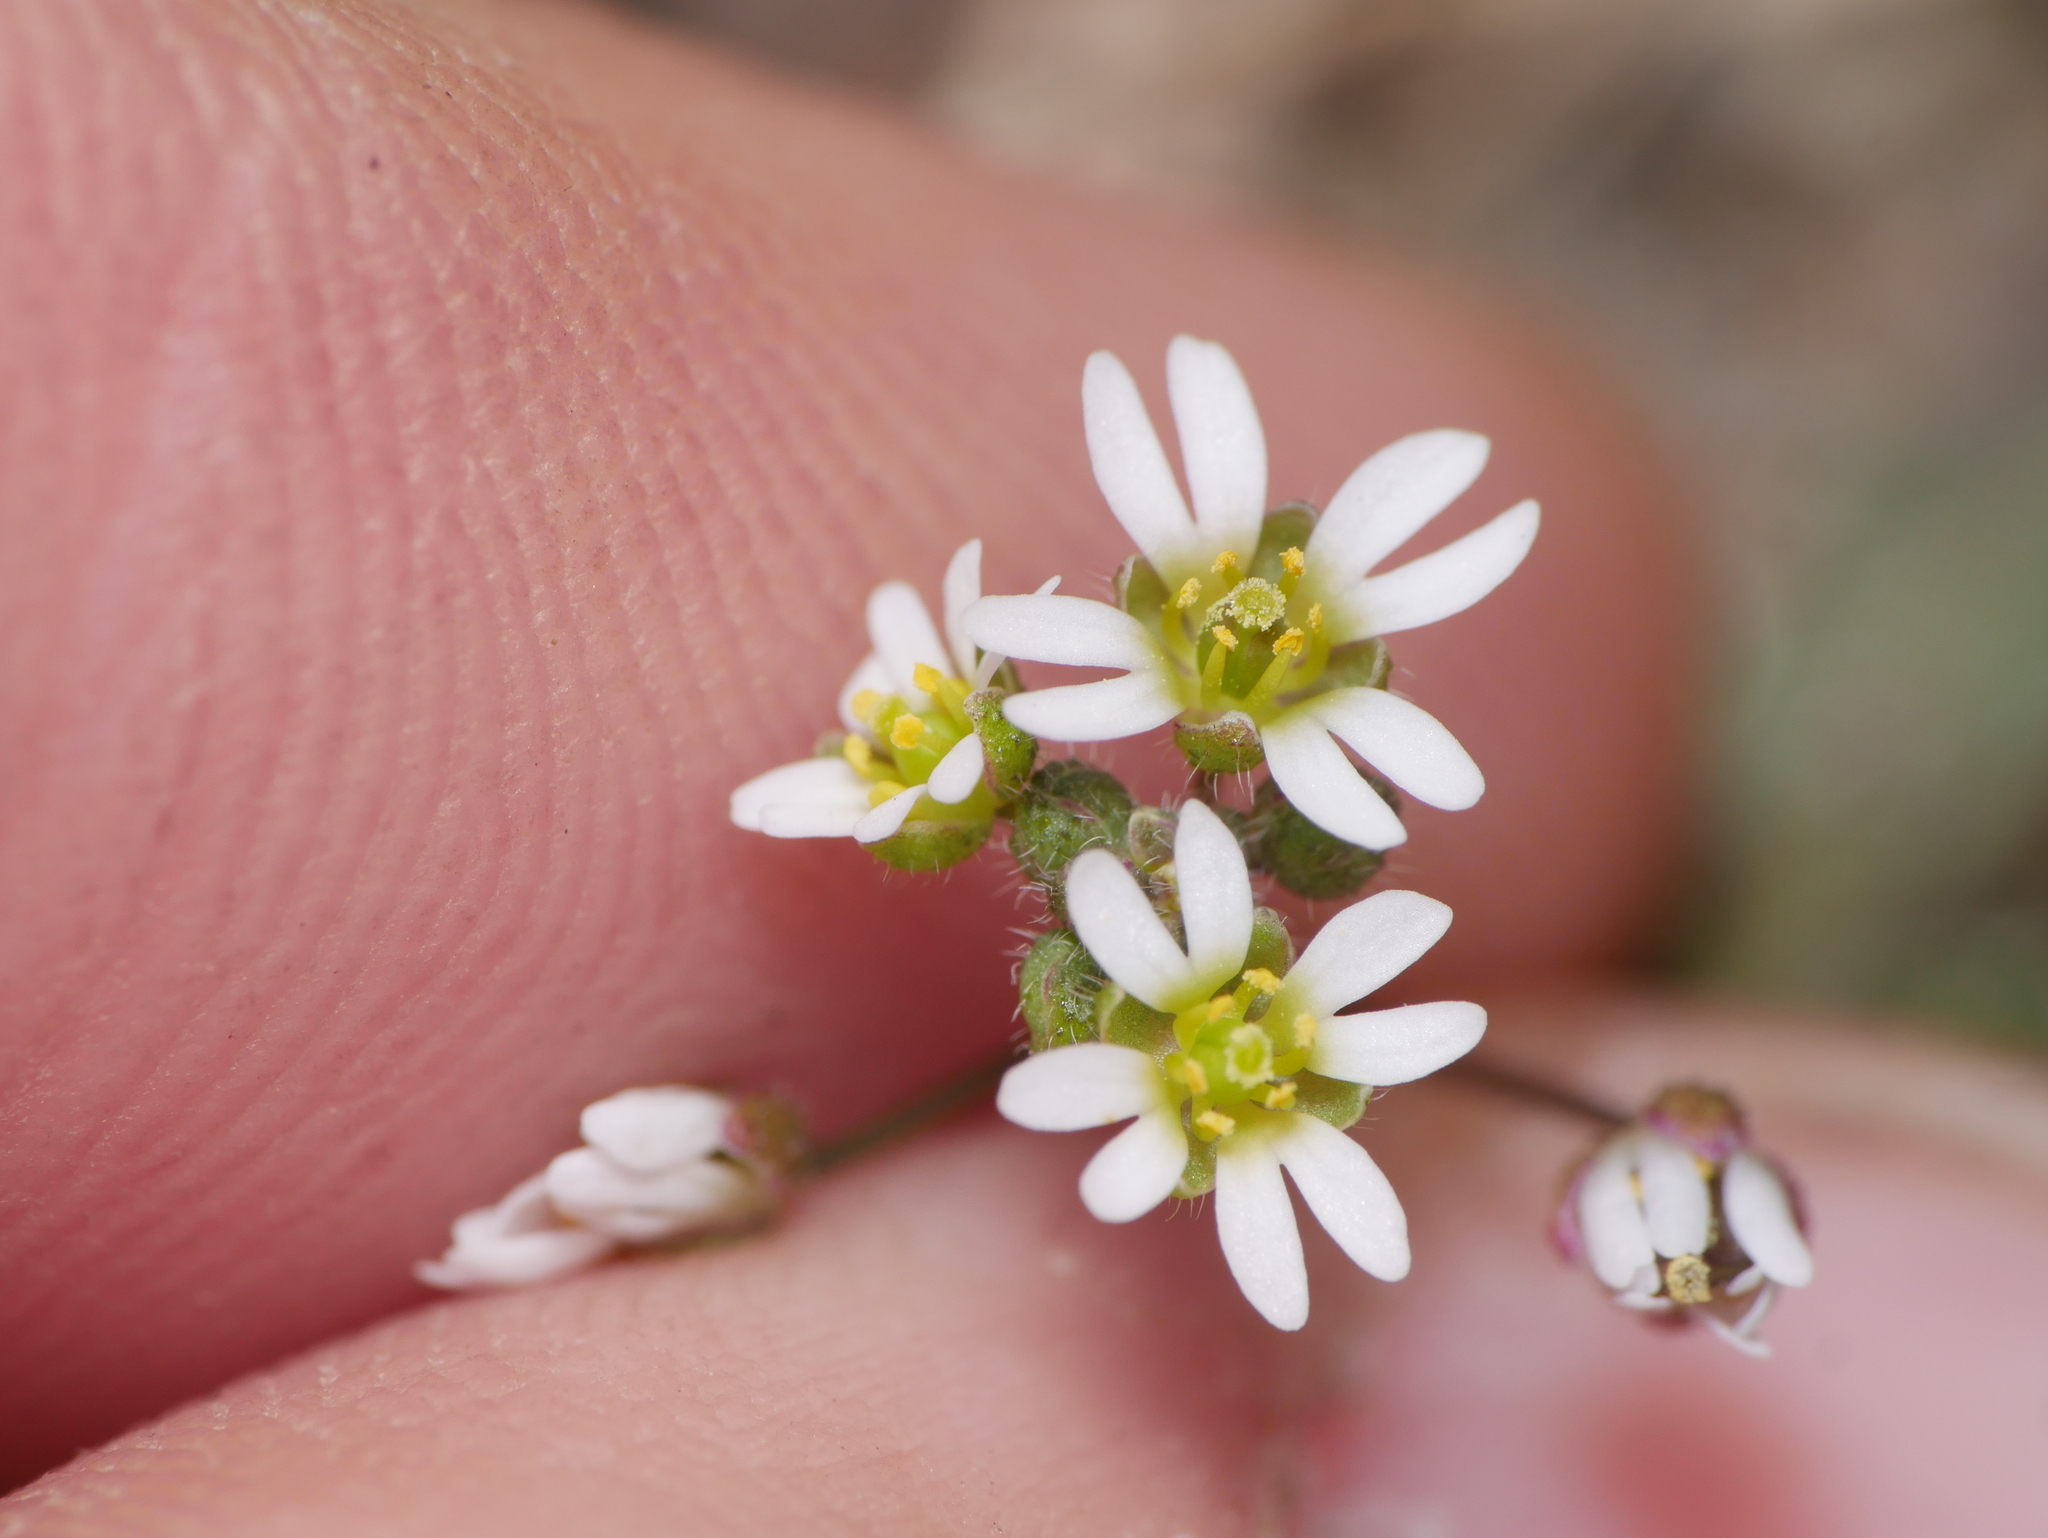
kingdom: Plantae
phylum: Tracheophyta
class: Magnoliopsida
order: Brassicales
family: Brassicaceae
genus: Draba
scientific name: Draba verna
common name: Spring draba
